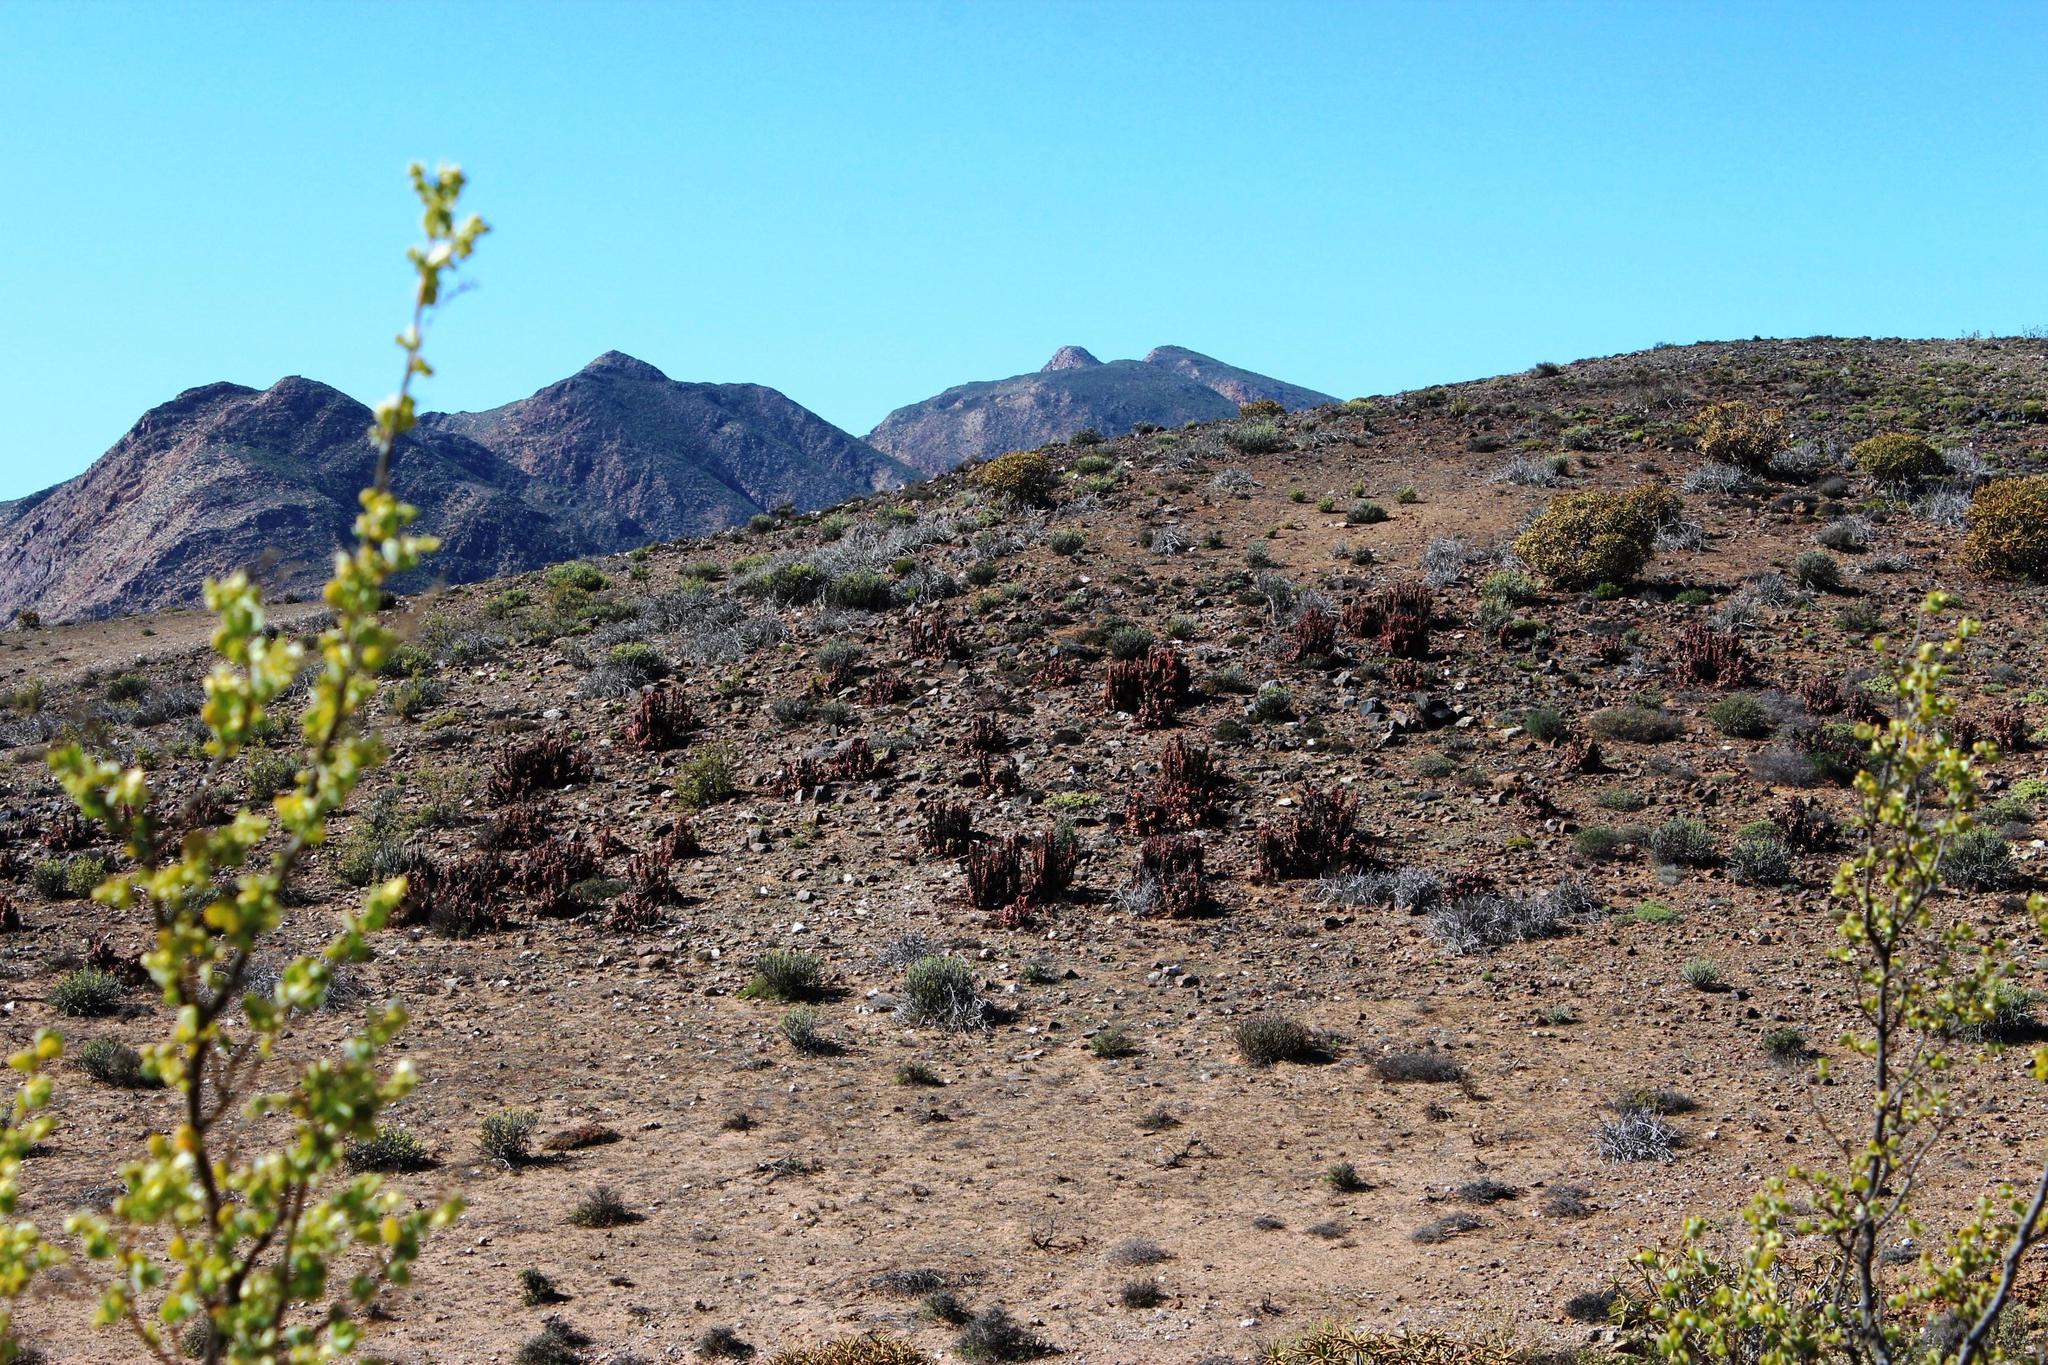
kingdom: Plantae
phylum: Tracheophyta
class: Liliopsida
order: Asparagales
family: Asphodelaceae
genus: Aloe
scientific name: Aloe pearsonii
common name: Pearson's aloe
